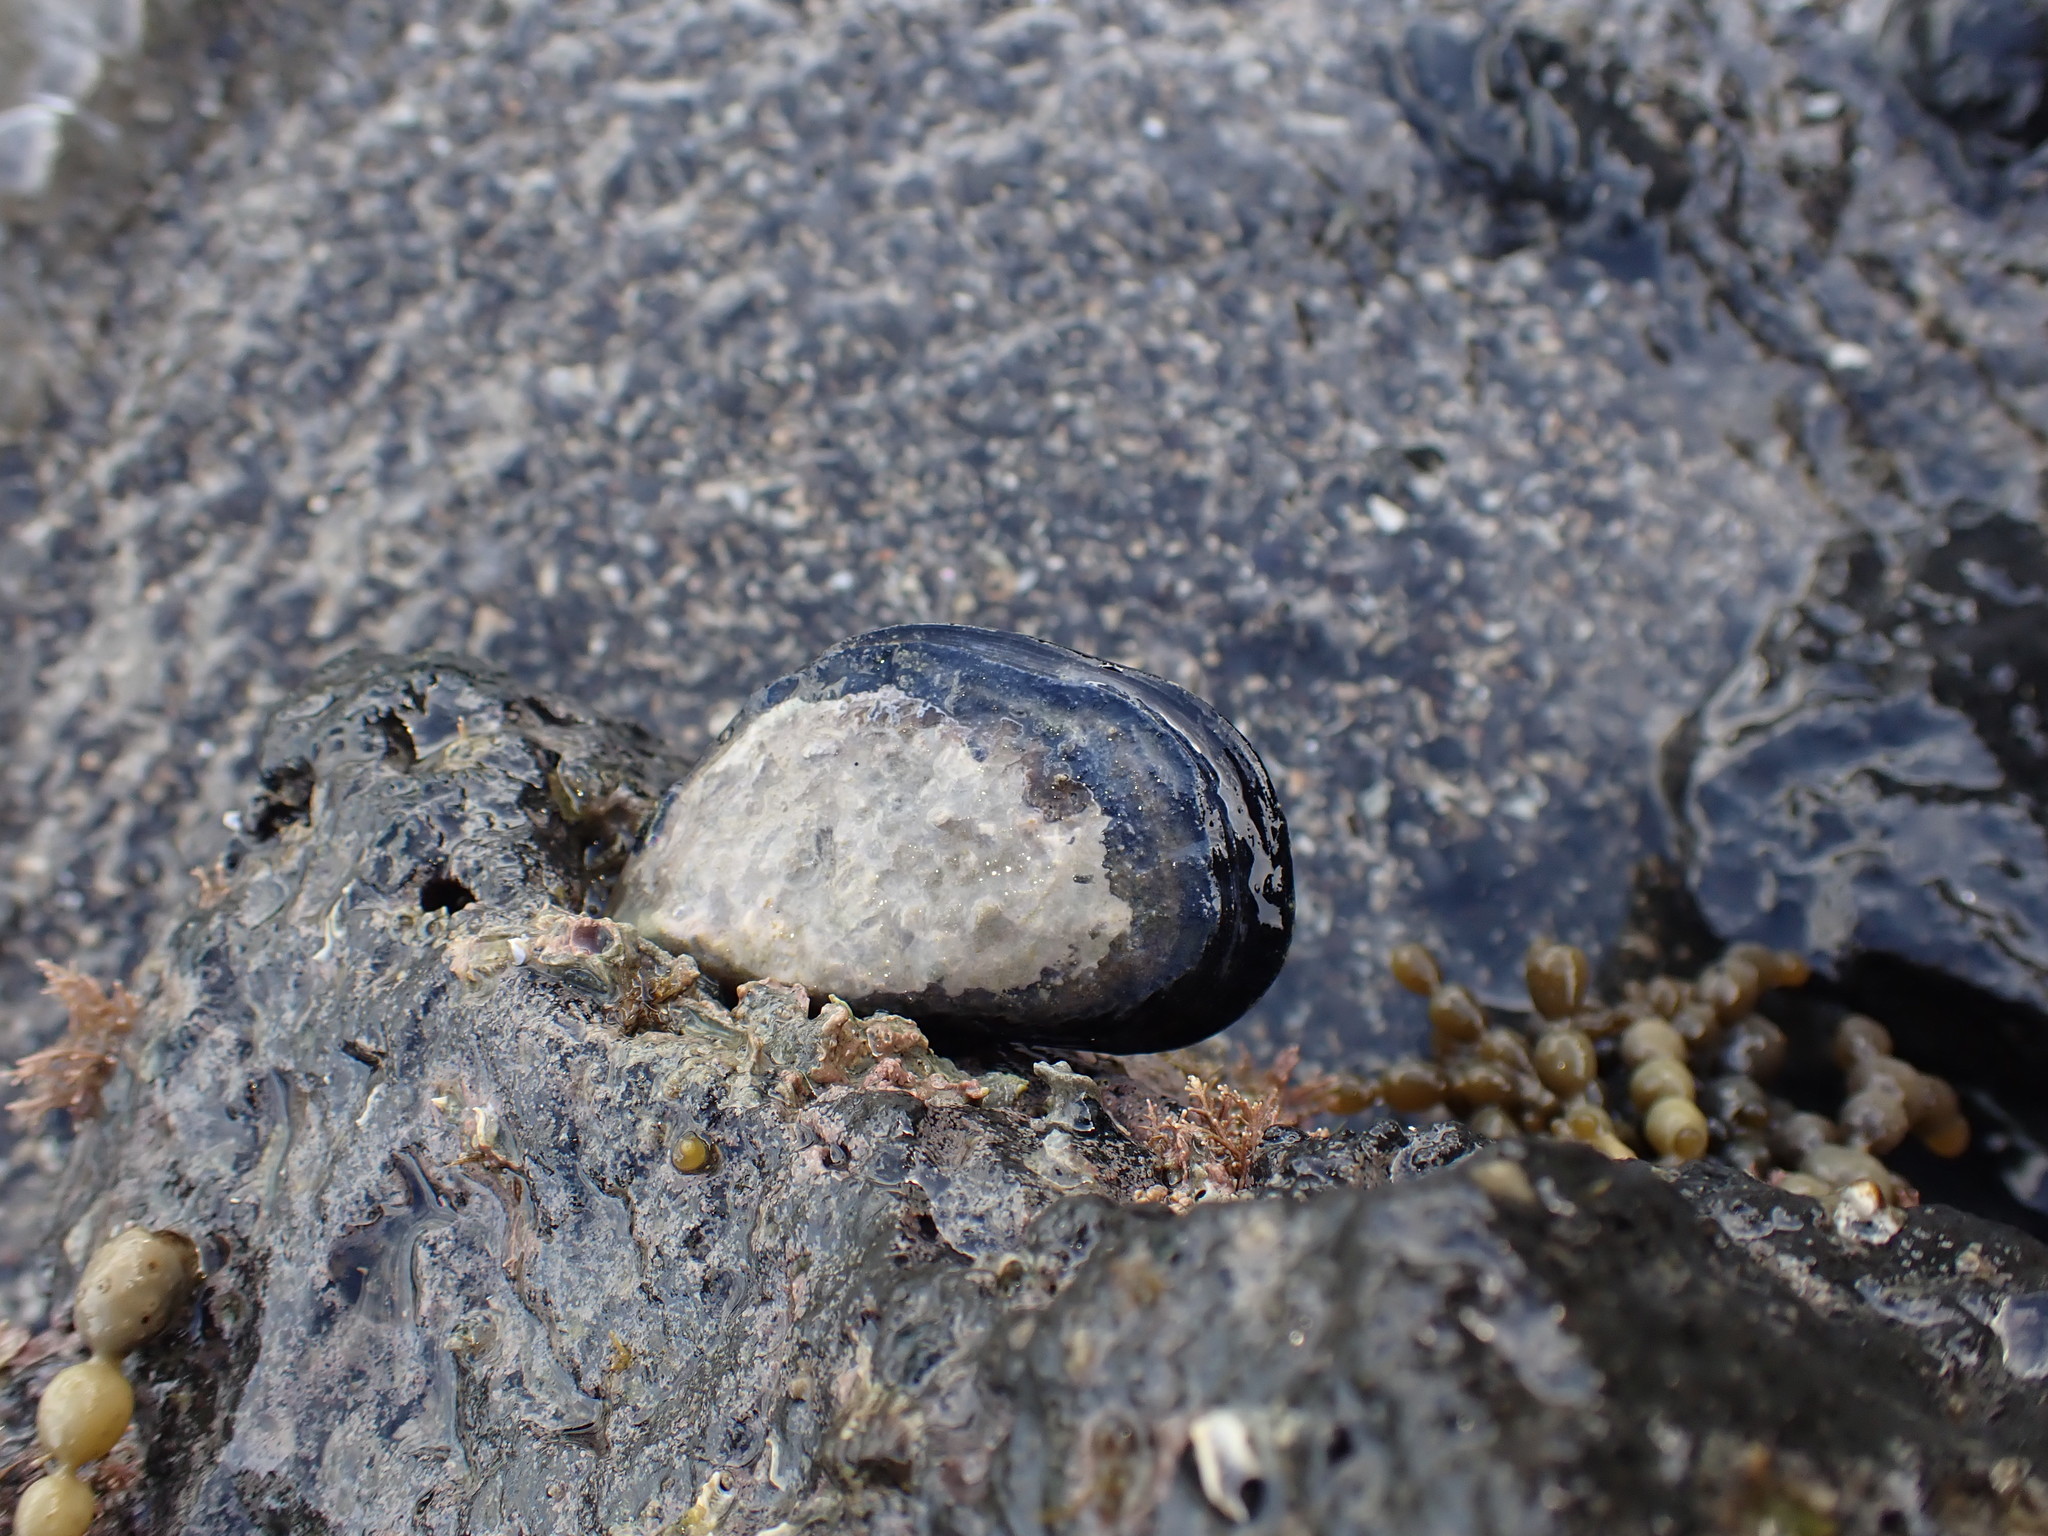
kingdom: Animalia
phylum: Mollusca
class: Bivalvia
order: Mytilida
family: Mytilidae
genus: Mytilus
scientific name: Mytilus planulatus
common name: Australian mussel
